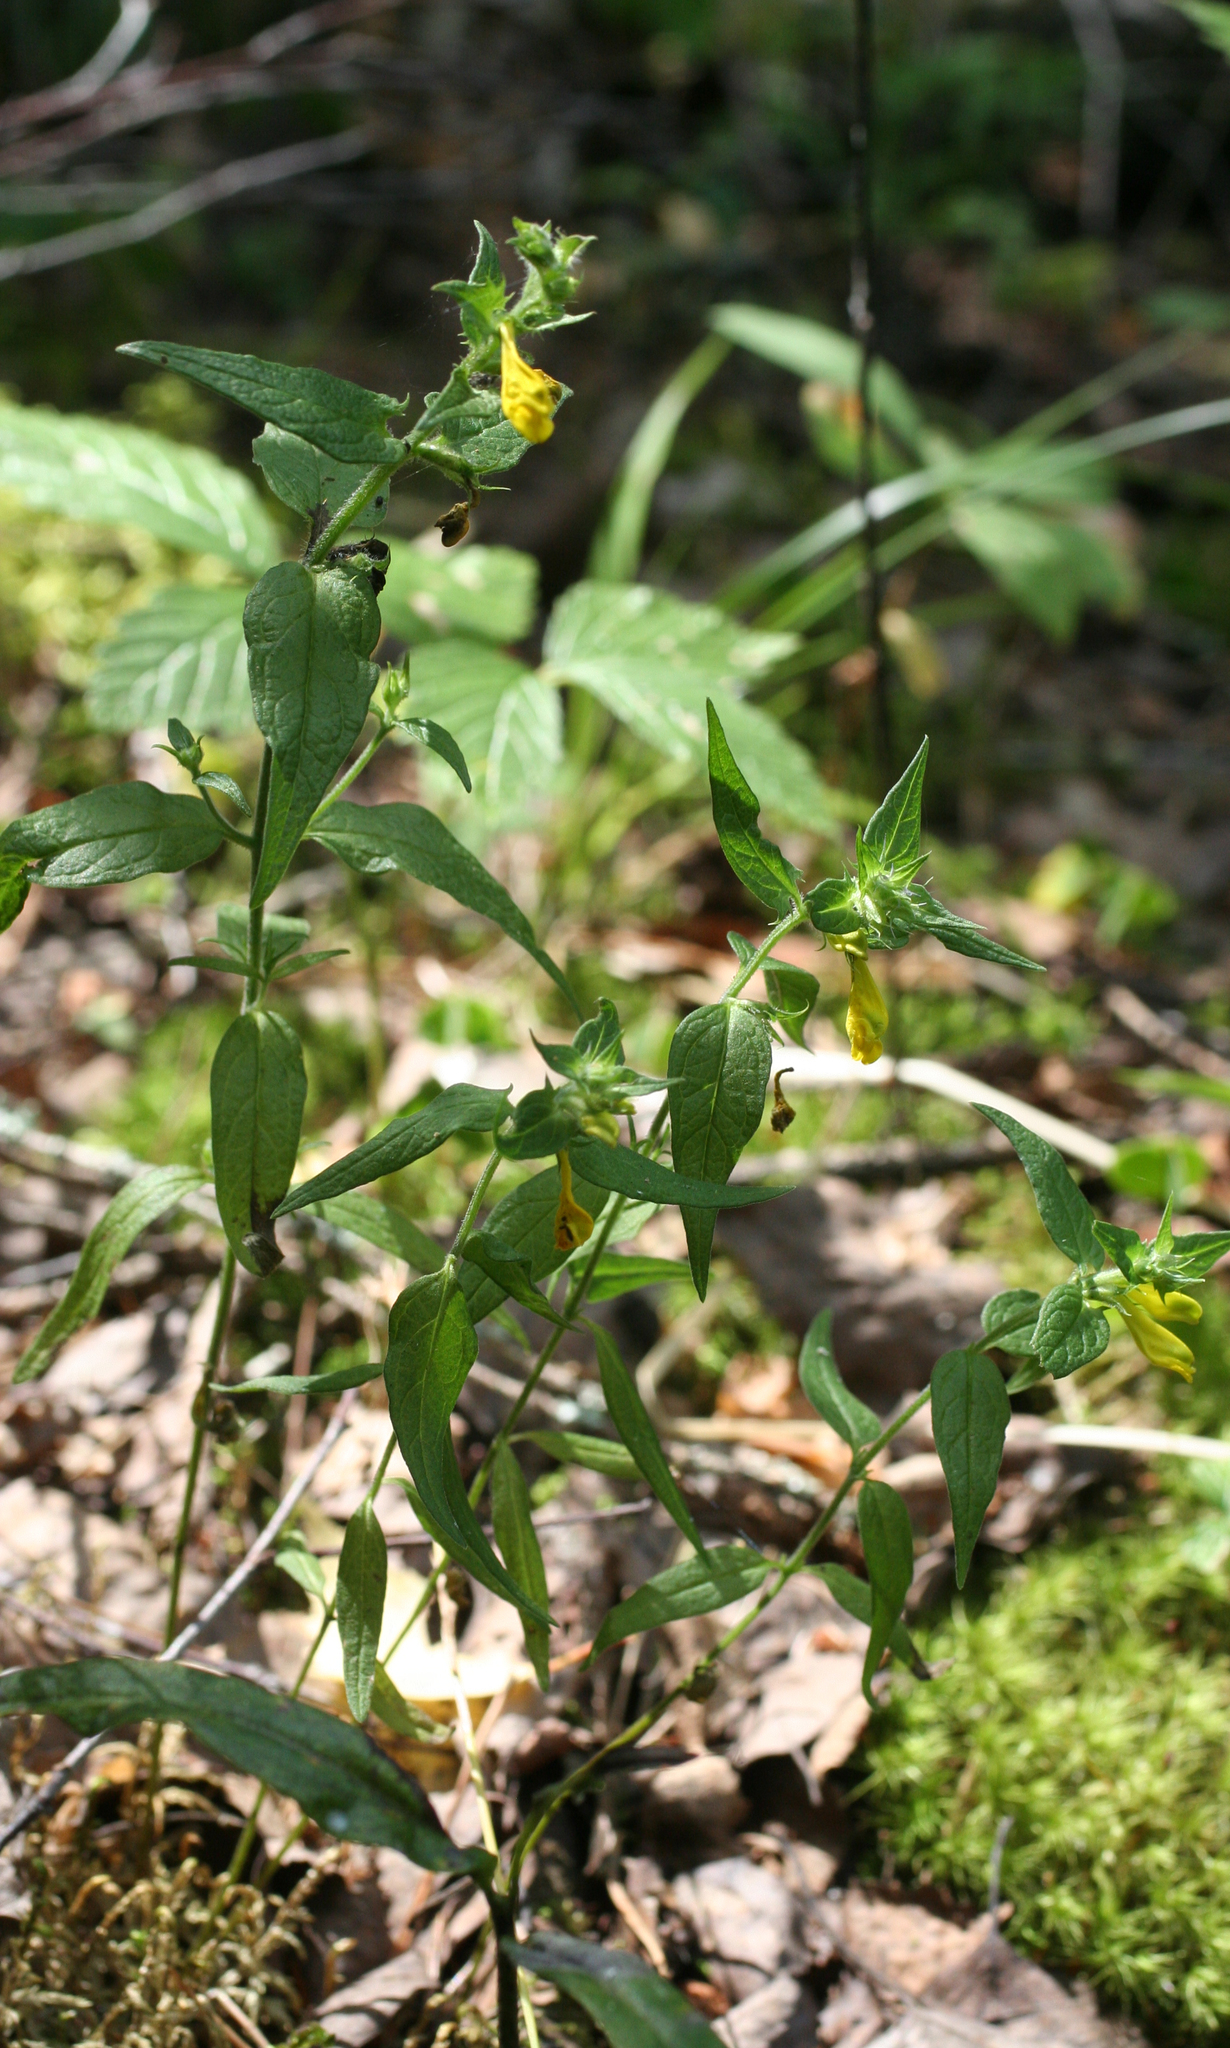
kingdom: Plantae
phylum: Tracheophyta
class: Magnoliopsida
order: Lamiales
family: Orobanchaceae
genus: Melampyrum
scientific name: Melampyrum nemorosum
